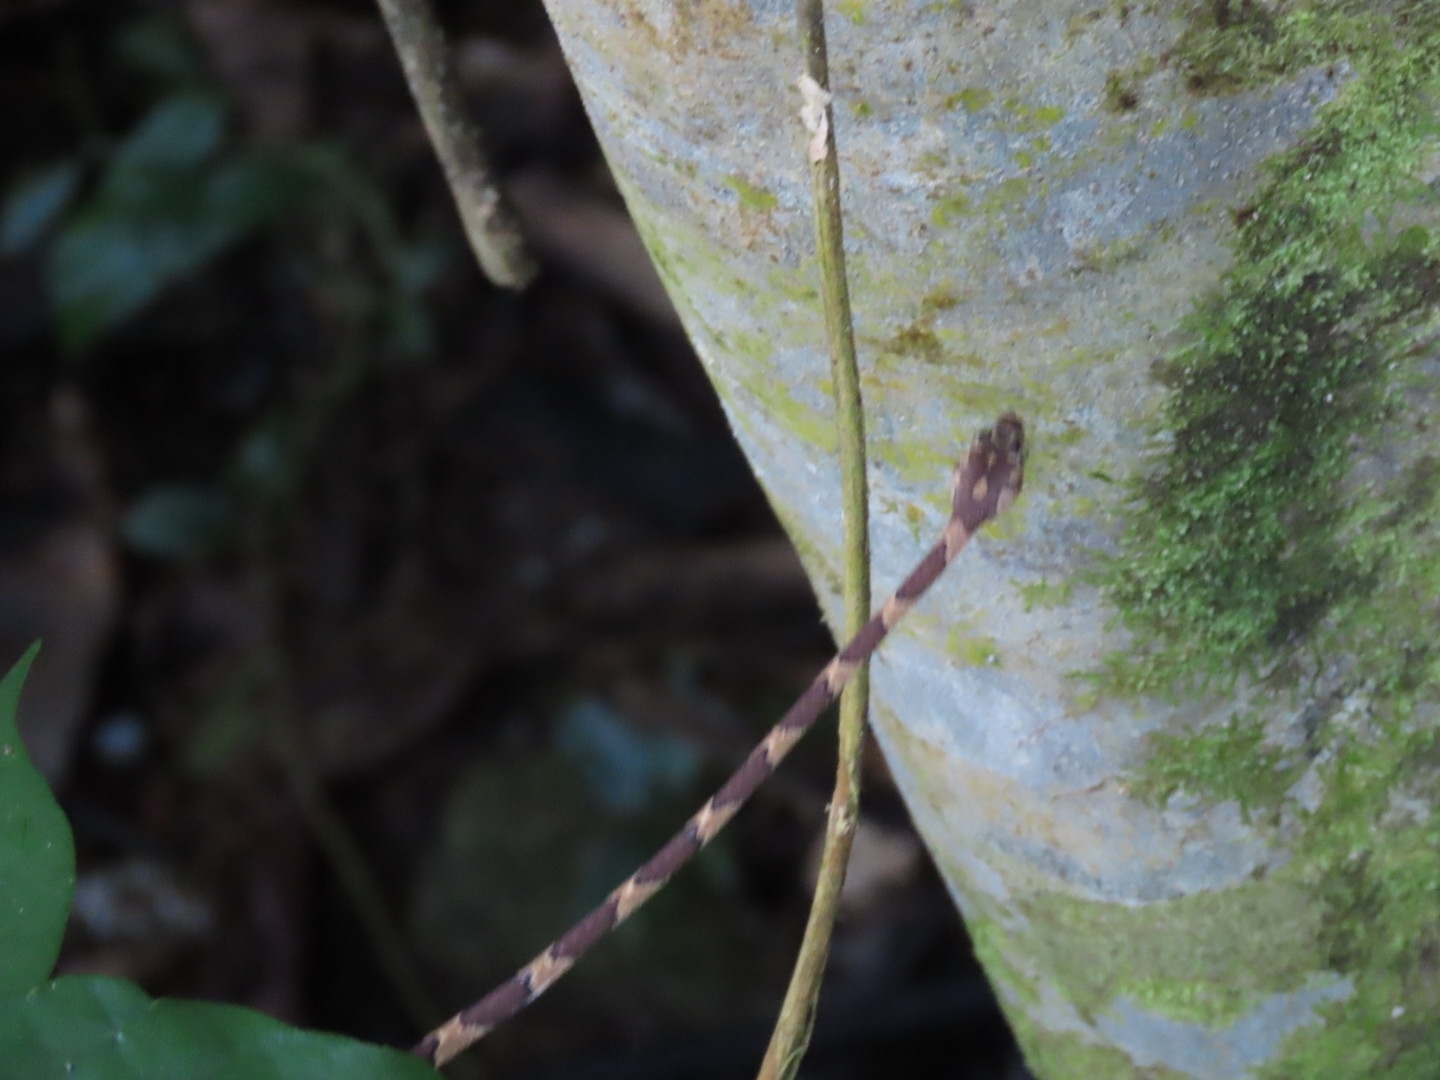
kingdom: Animalia
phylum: Chordata
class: Squamata
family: Colubridae
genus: Imantodes
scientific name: Imantodes cenchoa
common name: Blunthead tree snake
